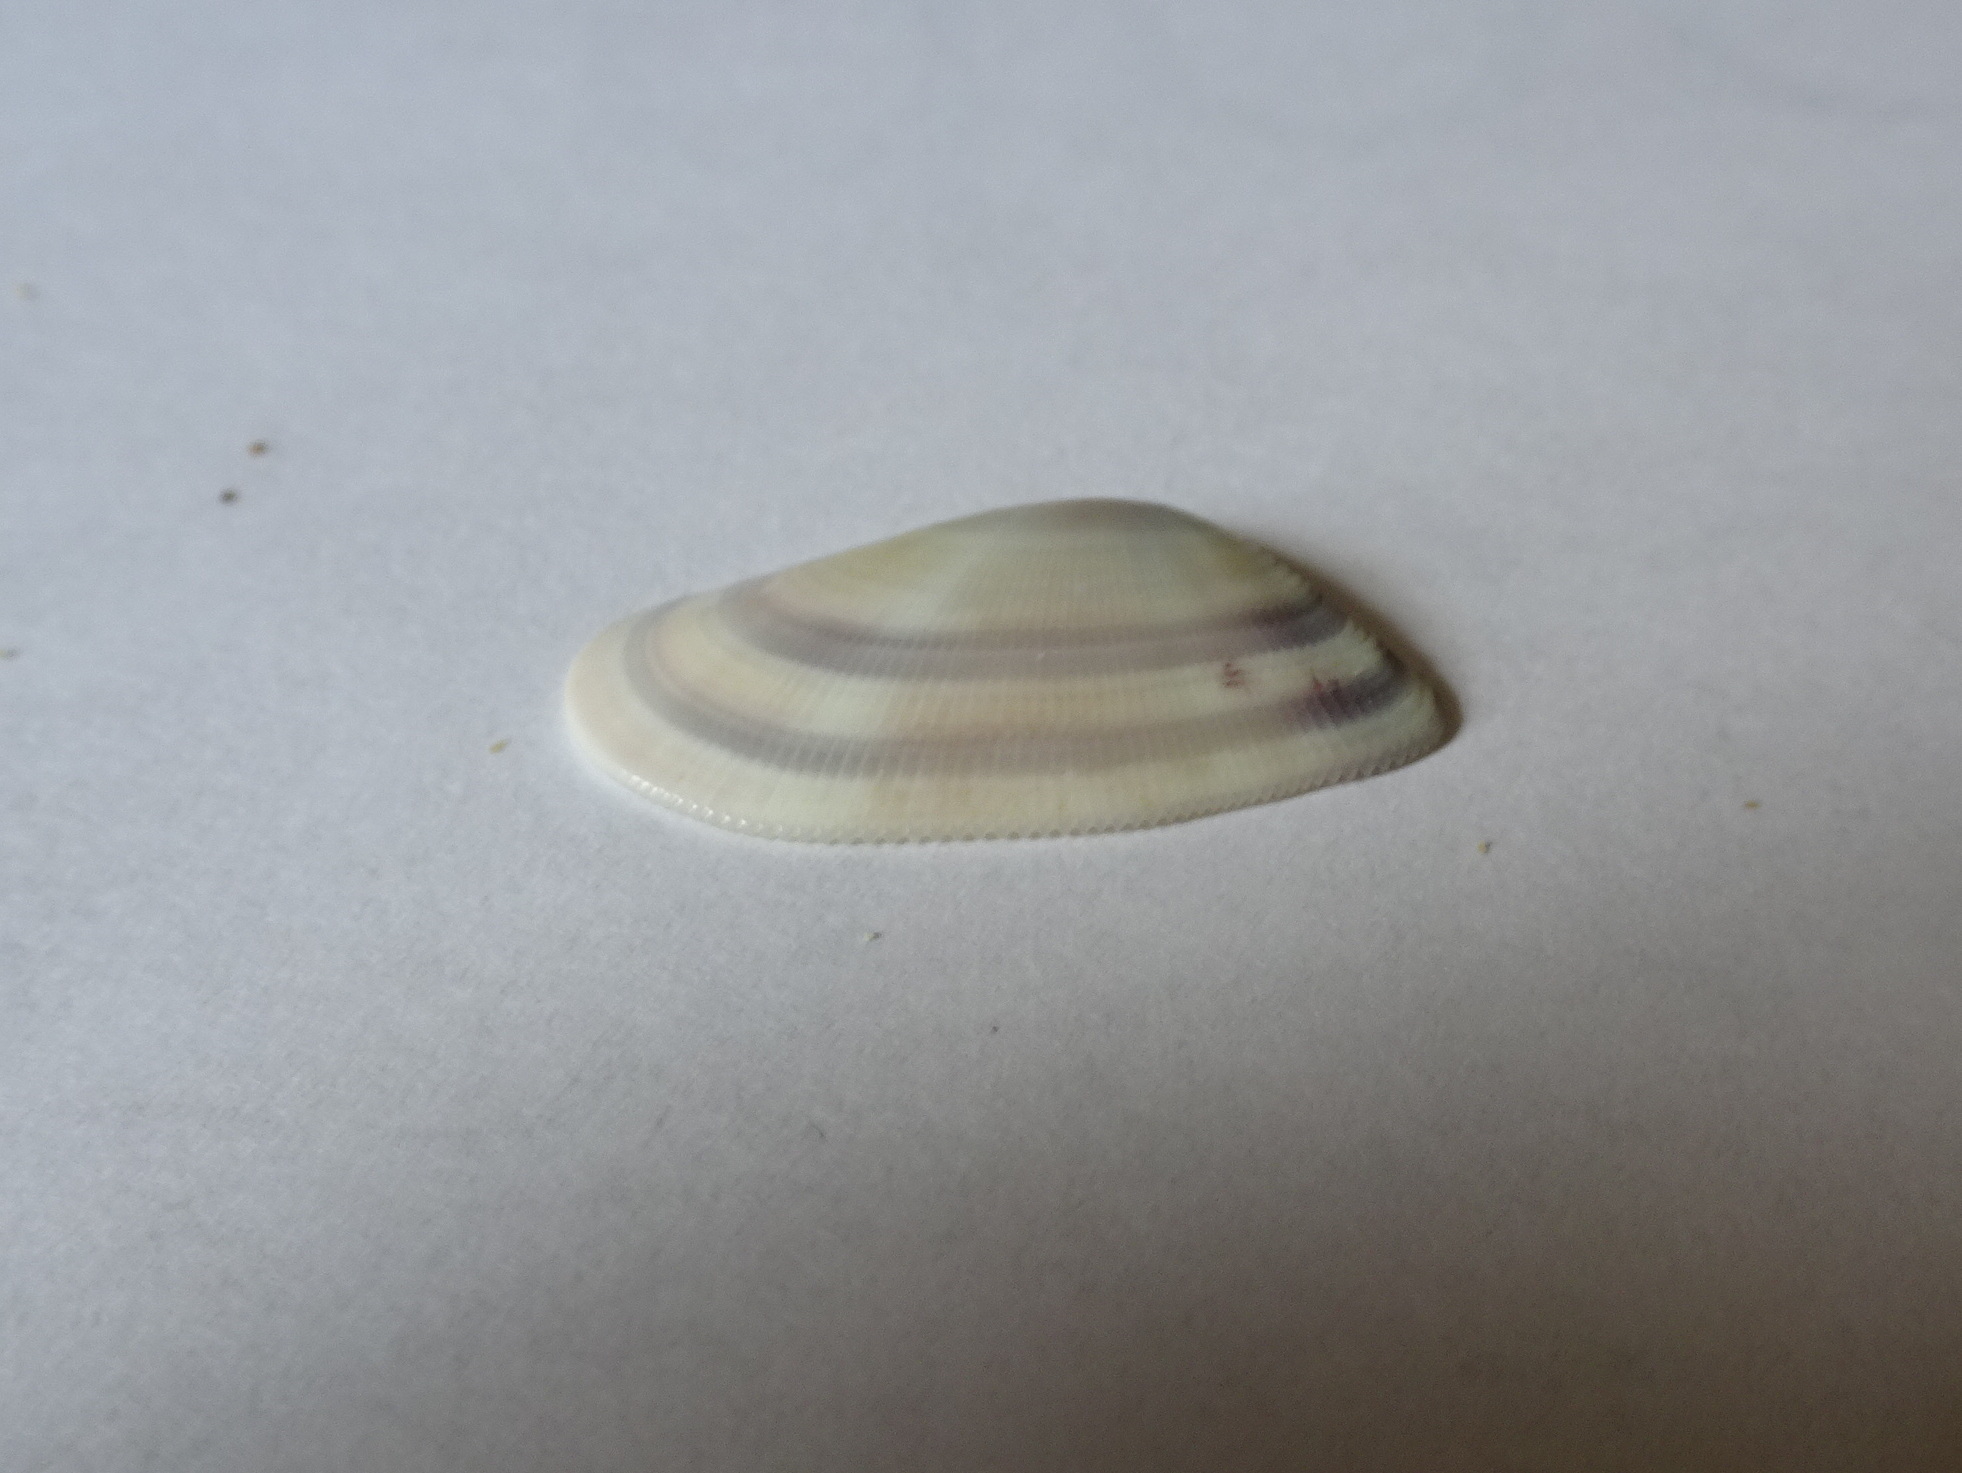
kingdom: Animalia
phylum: Mollusca
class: Bivalvia
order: Cardiida
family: Donacidae
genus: Donax
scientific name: Donax variabilis
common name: Butterfly shell
